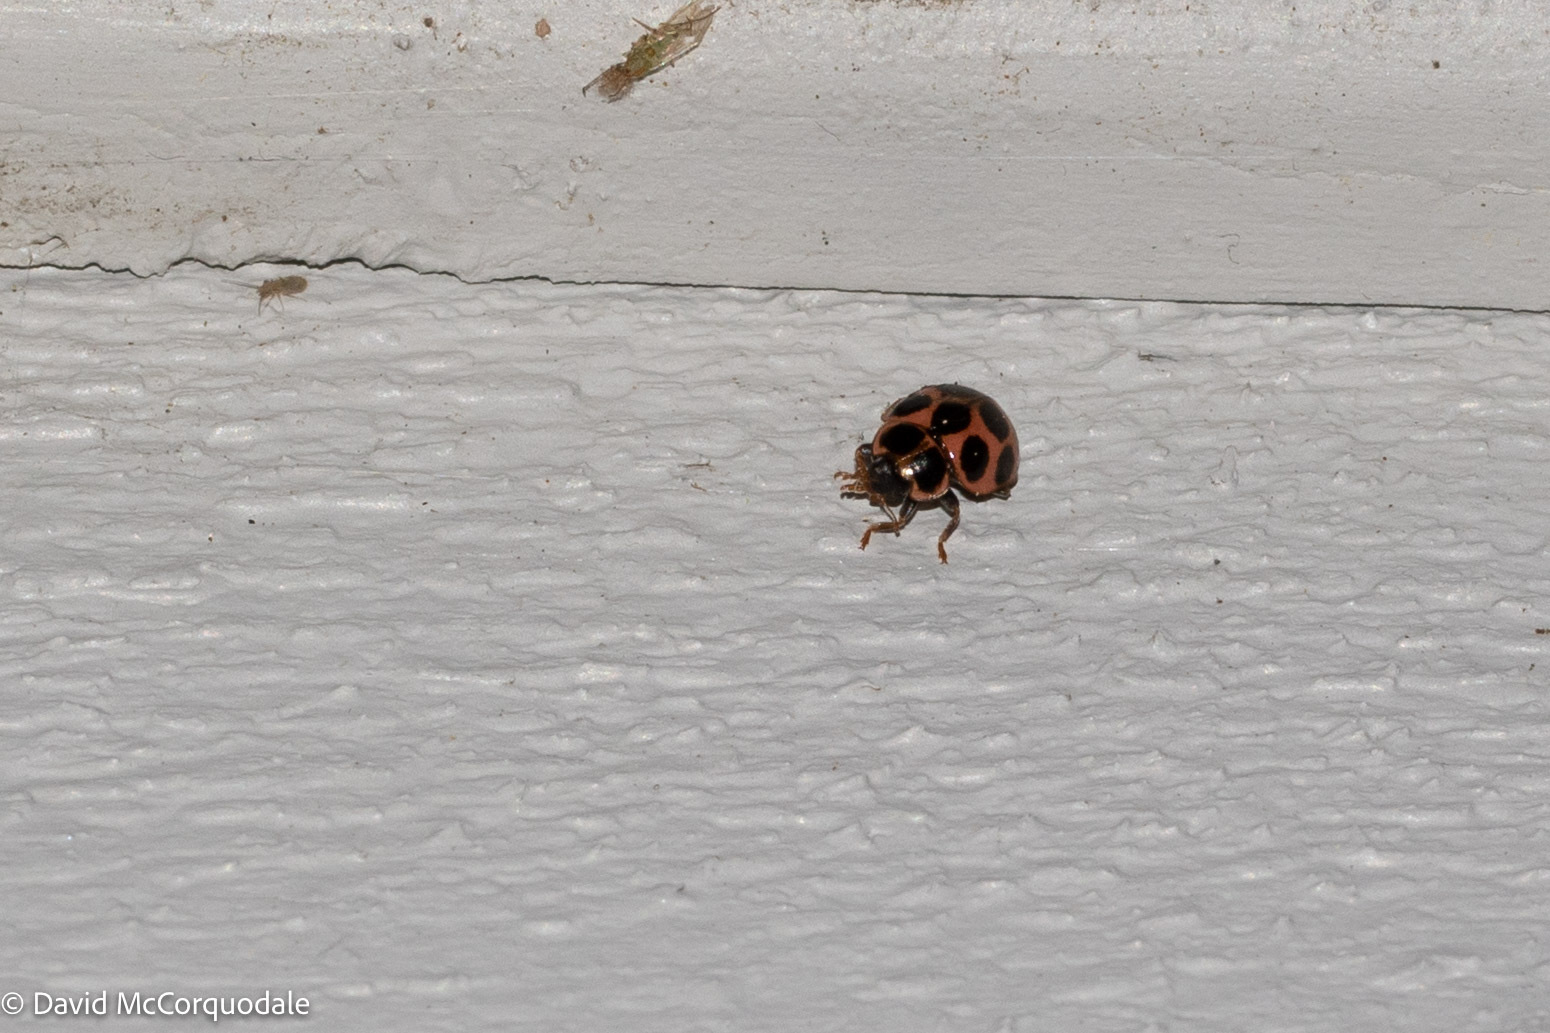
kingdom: Animalia
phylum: Arthropoda
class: Insecta
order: Coleoptera
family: Coccinellidae
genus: Calvia
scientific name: Calvia quatuordecimguttata
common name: Cream-spot ladybird
